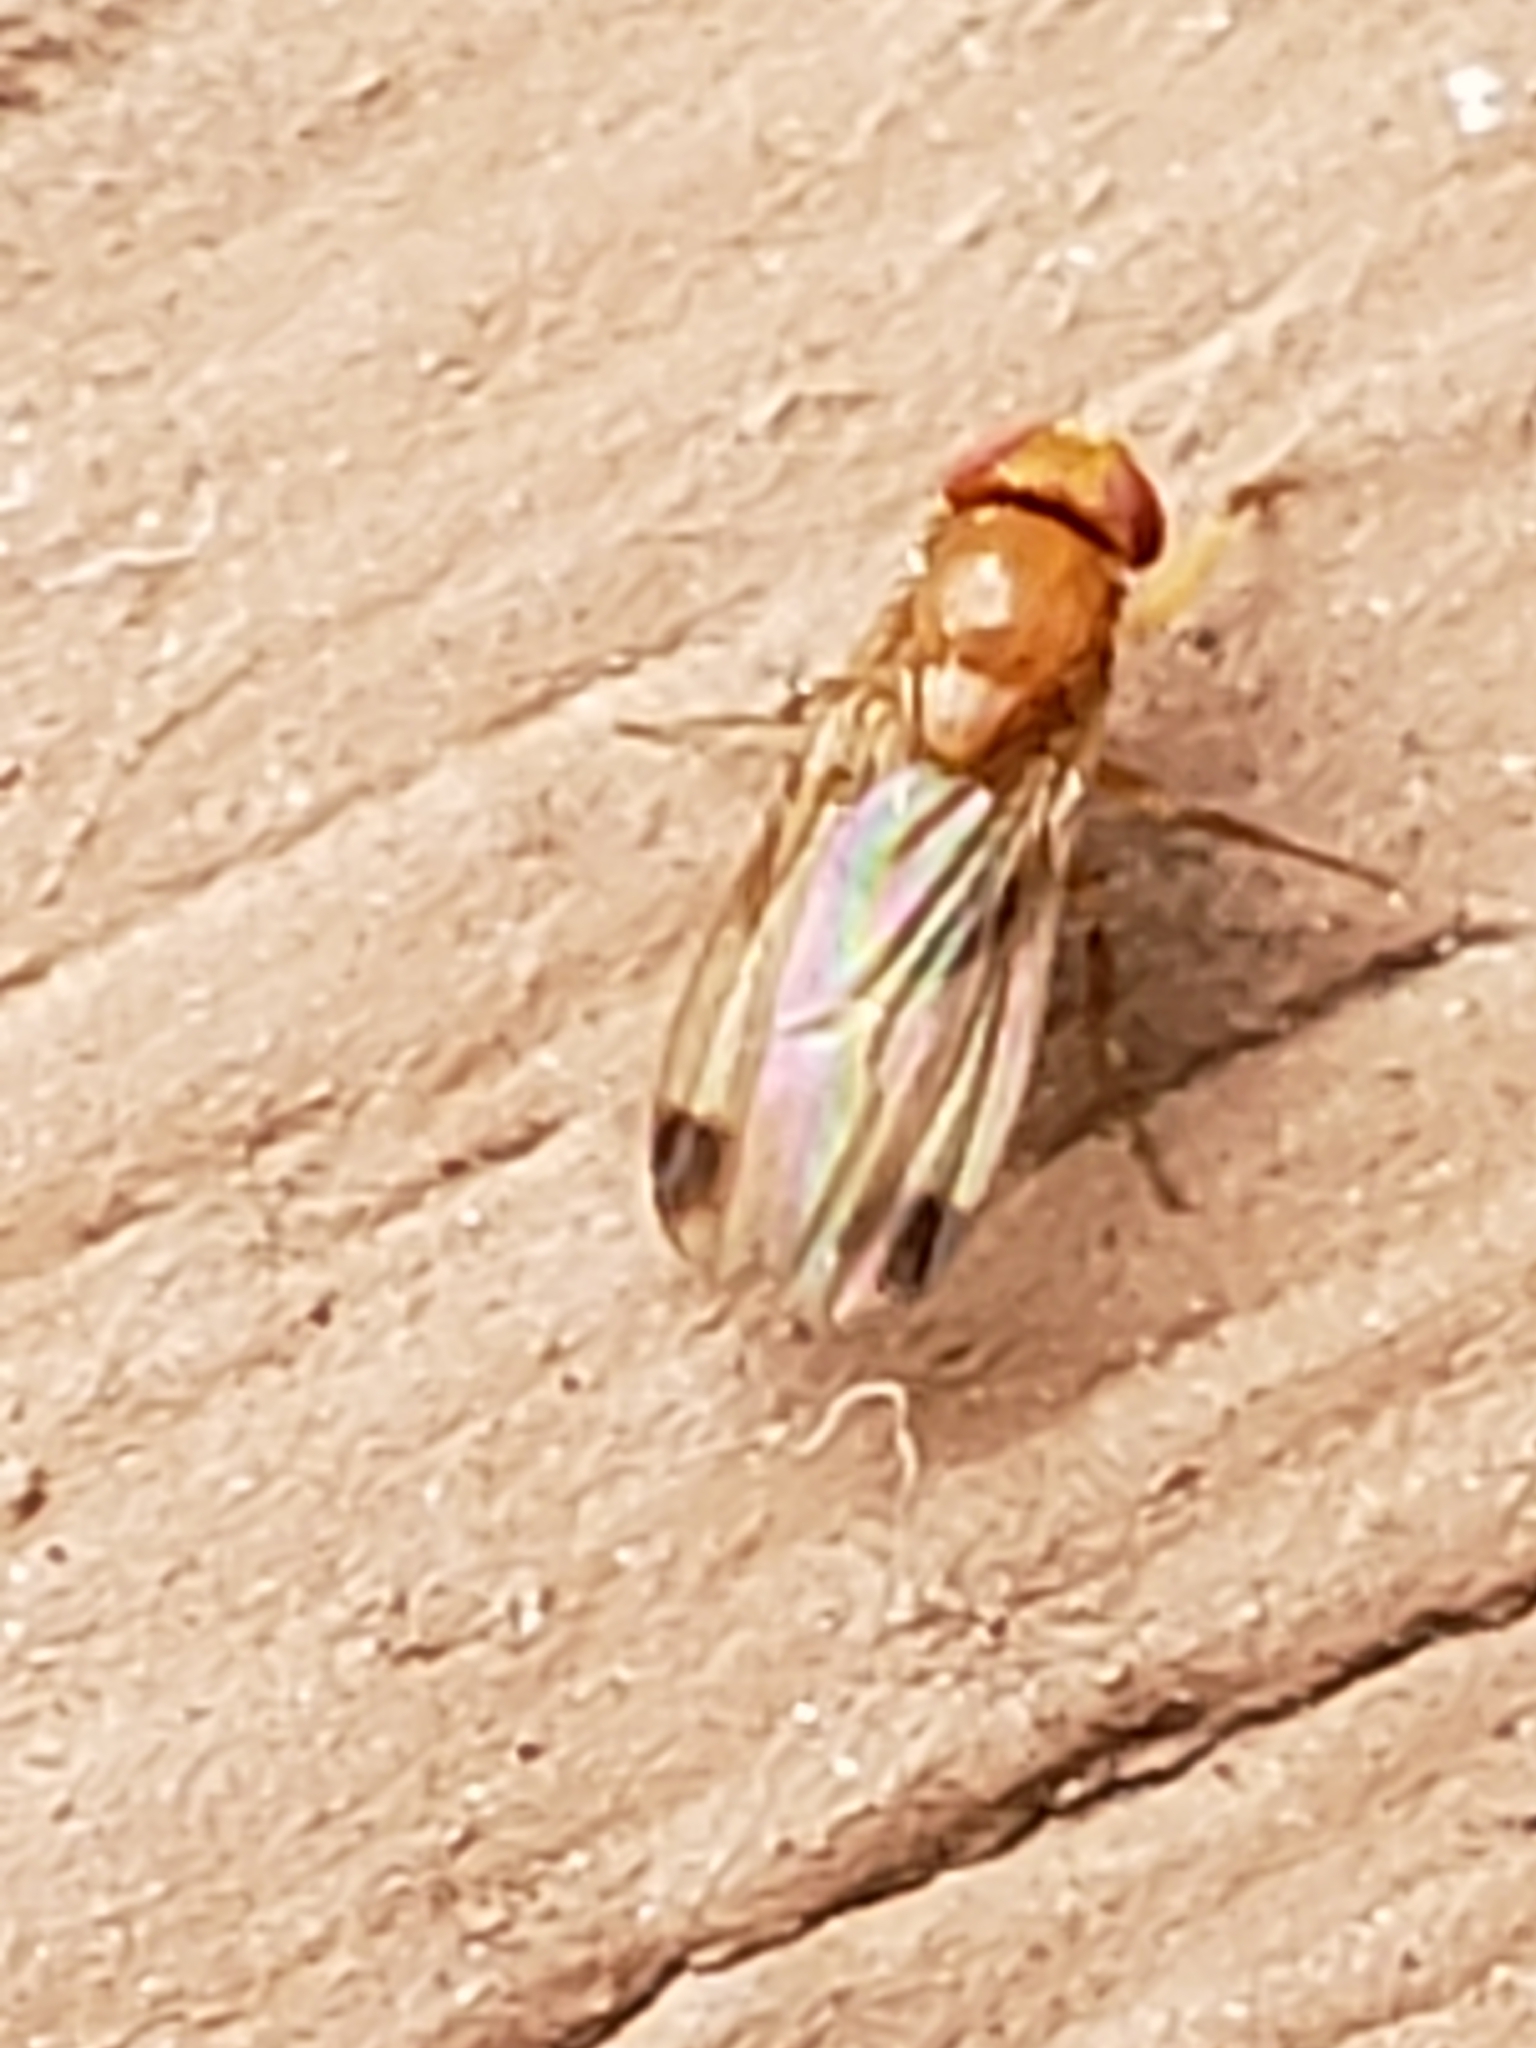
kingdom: Animalia
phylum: Arthropoda
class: Insecta
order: Diptera
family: Drosophilidae
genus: Drosophila
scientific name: Drosophila suzukii
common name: Spotted-wing drosophila
